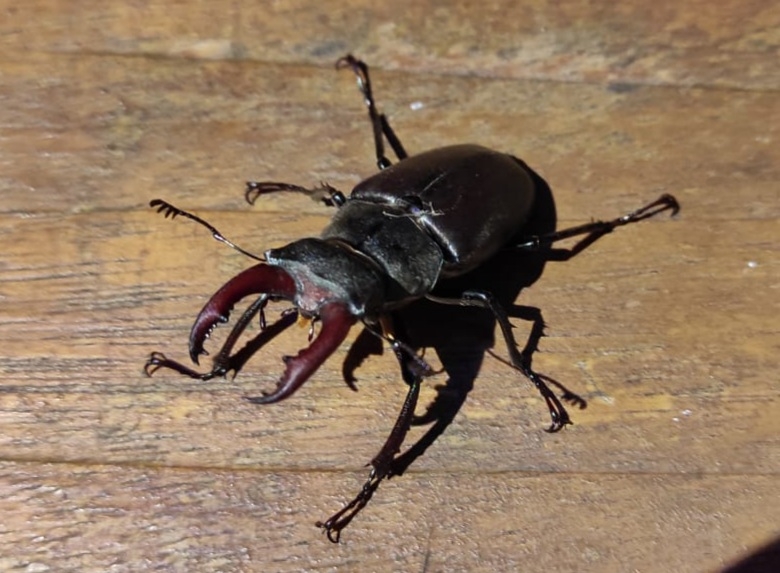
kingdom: Animalia
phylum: Arthropoda
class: Insecta
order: Coleoptera
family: Lucanidae
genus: Lucanus
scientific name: Lucanus cervus
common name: Stag beetle
